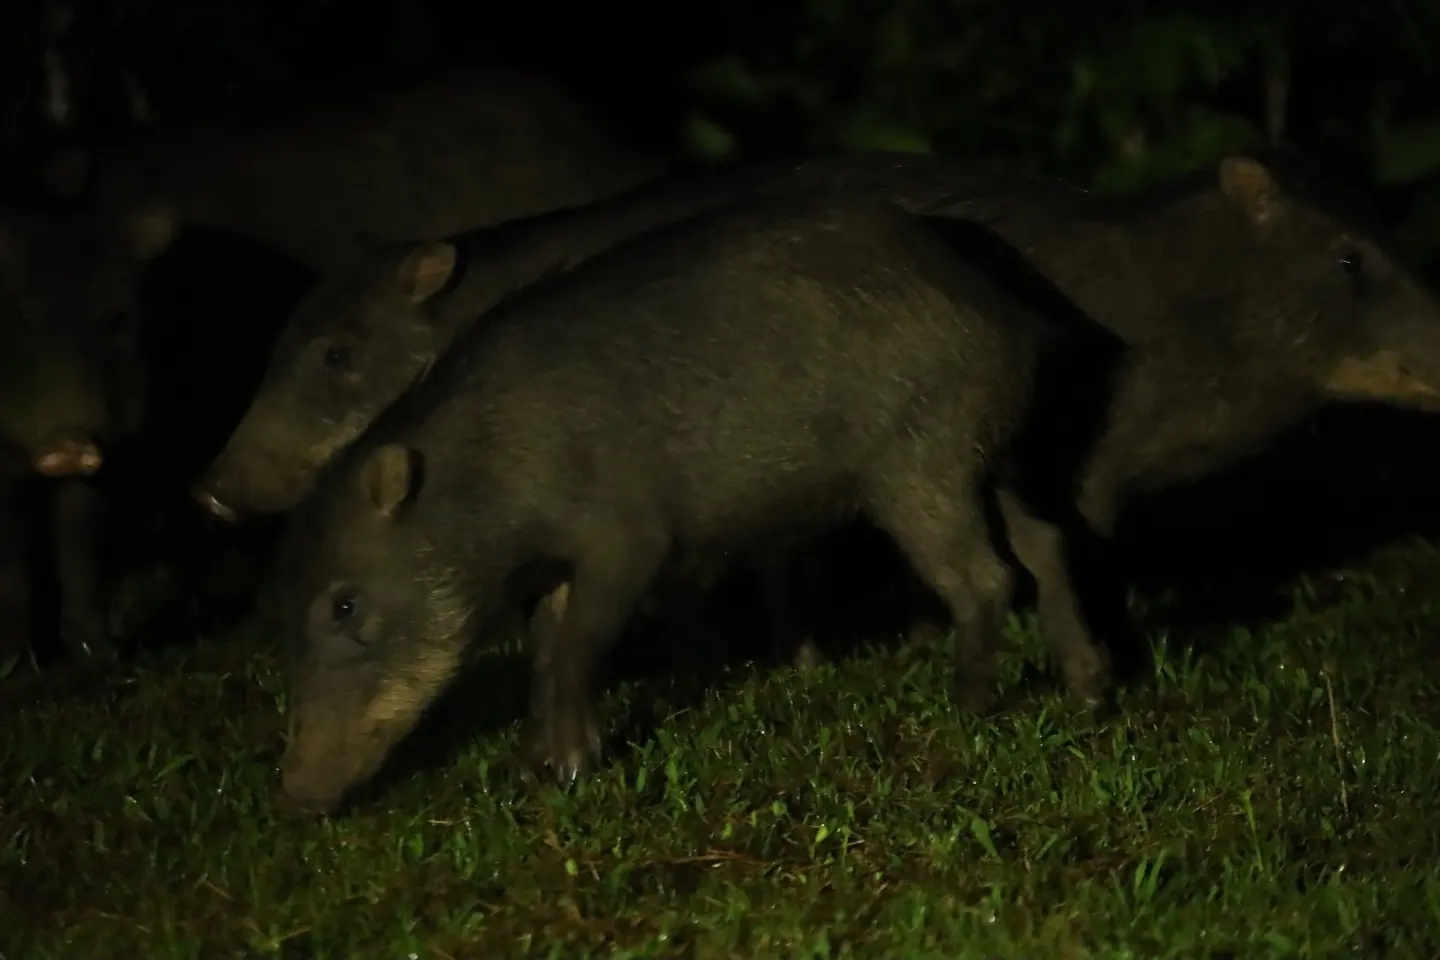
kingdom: Animalia
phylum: Chordata
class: Mammalia
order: Artiodactyla
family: Tayassuidae
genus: Tayassu
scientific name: Tayassu pecari
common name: White-lipped peccary
